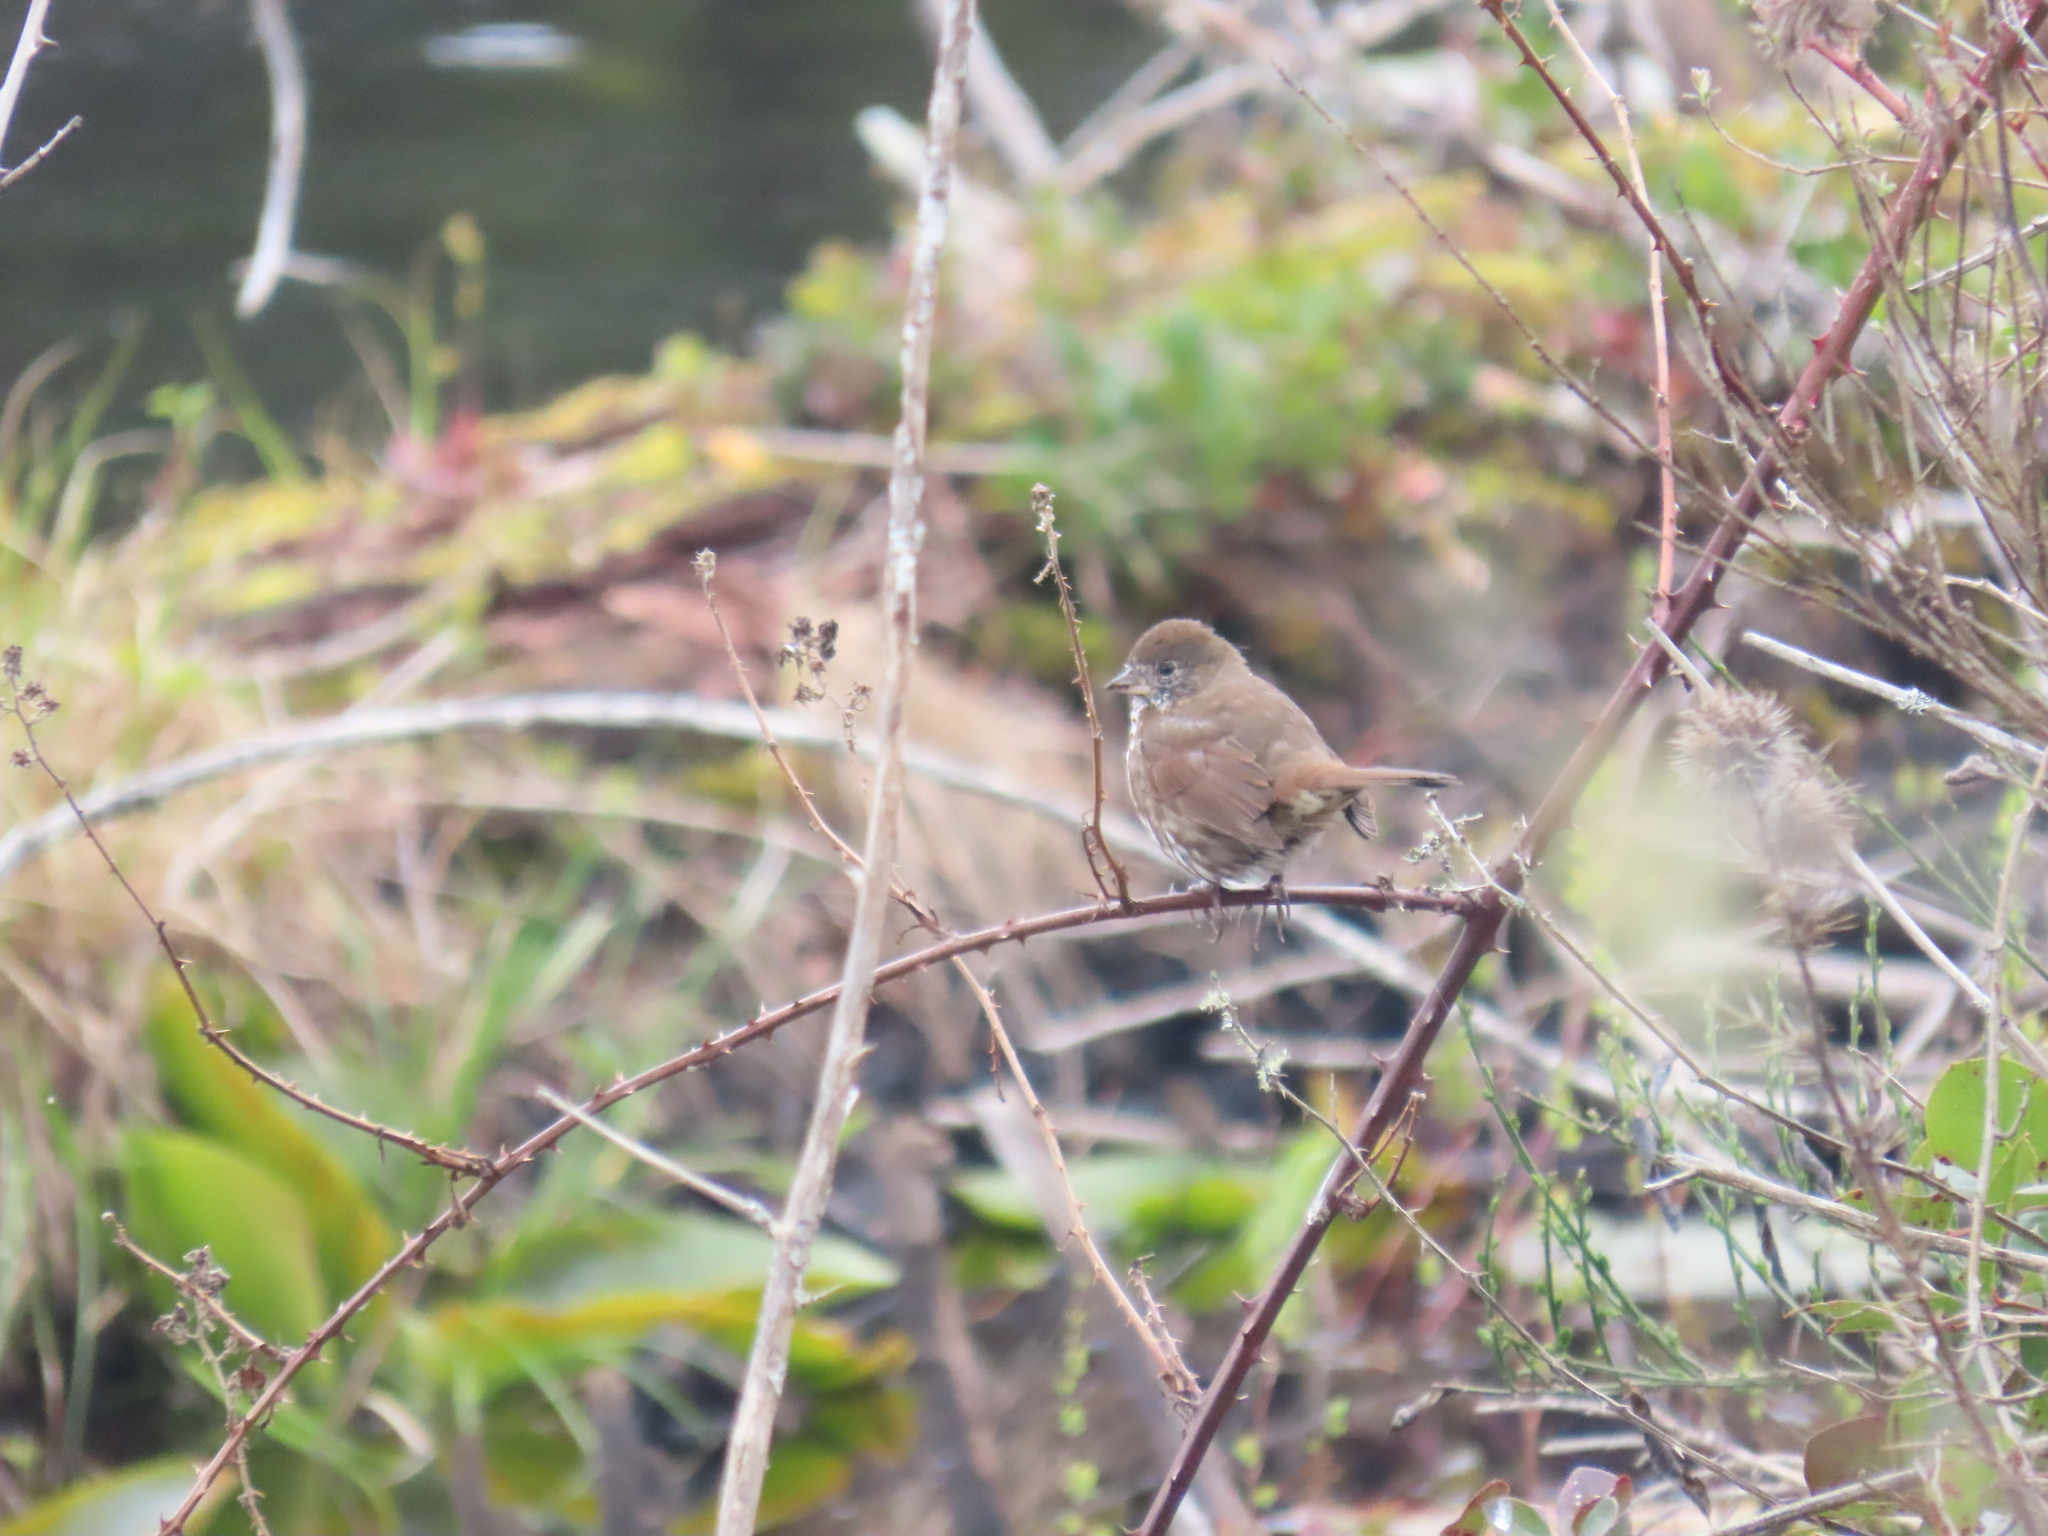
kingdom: Animalia
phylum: Chordata
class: Aves
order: Passeriformes
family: Passerellidae
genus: Passerella
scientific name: Passerella iliaca
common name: Fox sparrow
